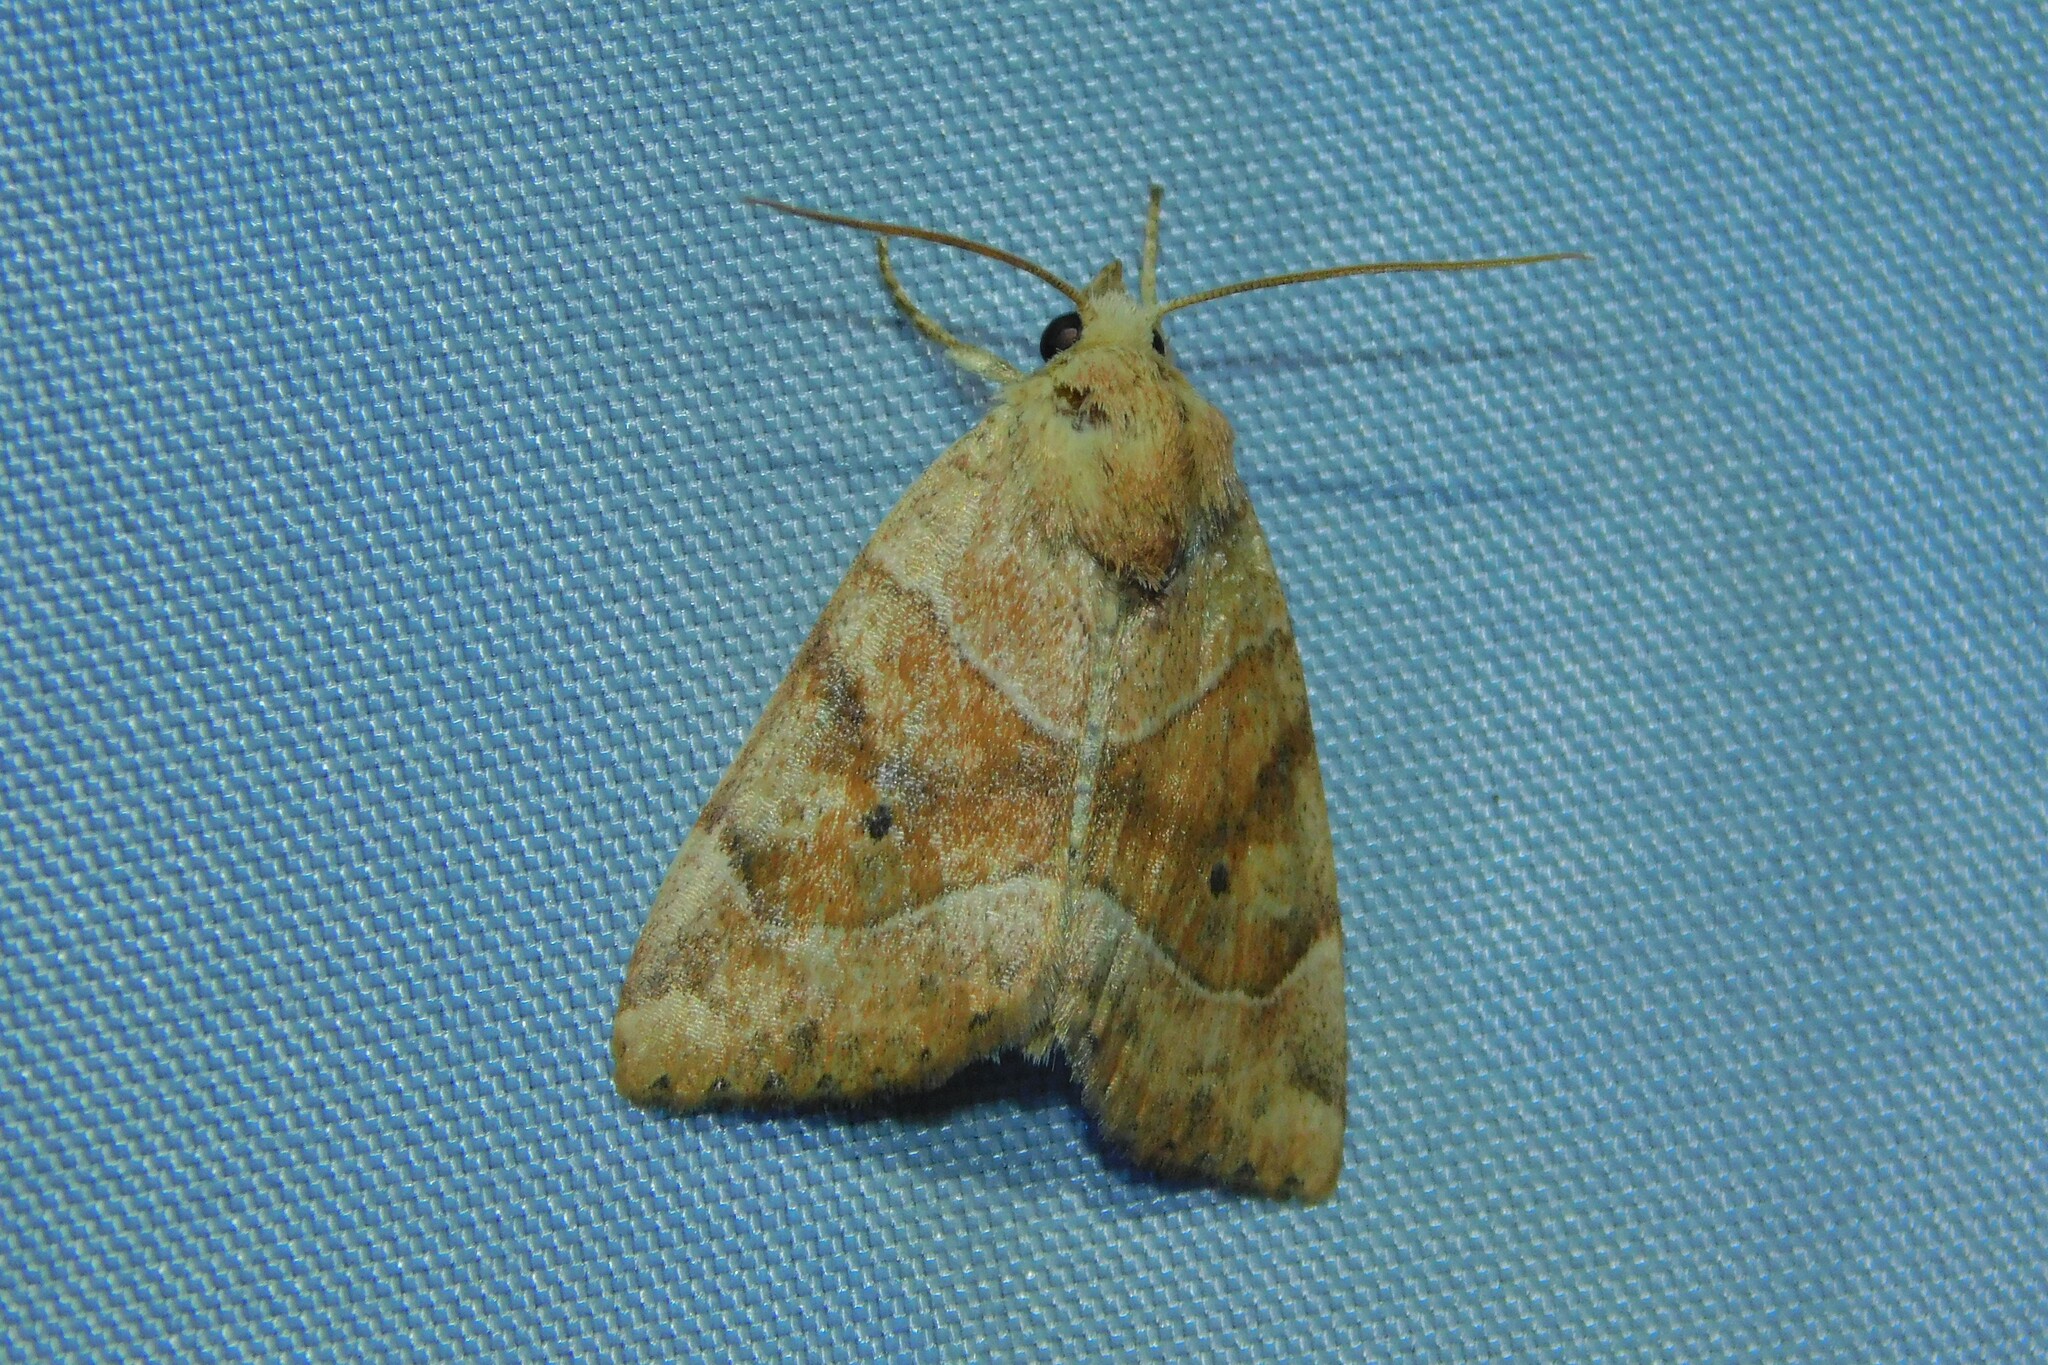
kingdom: Animalia
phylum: Arthropoda
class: Insecta
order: Lepidoptera
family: Noctuidae
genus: Cosmia
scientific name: Cosmia trapezina
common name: Dun-bar
